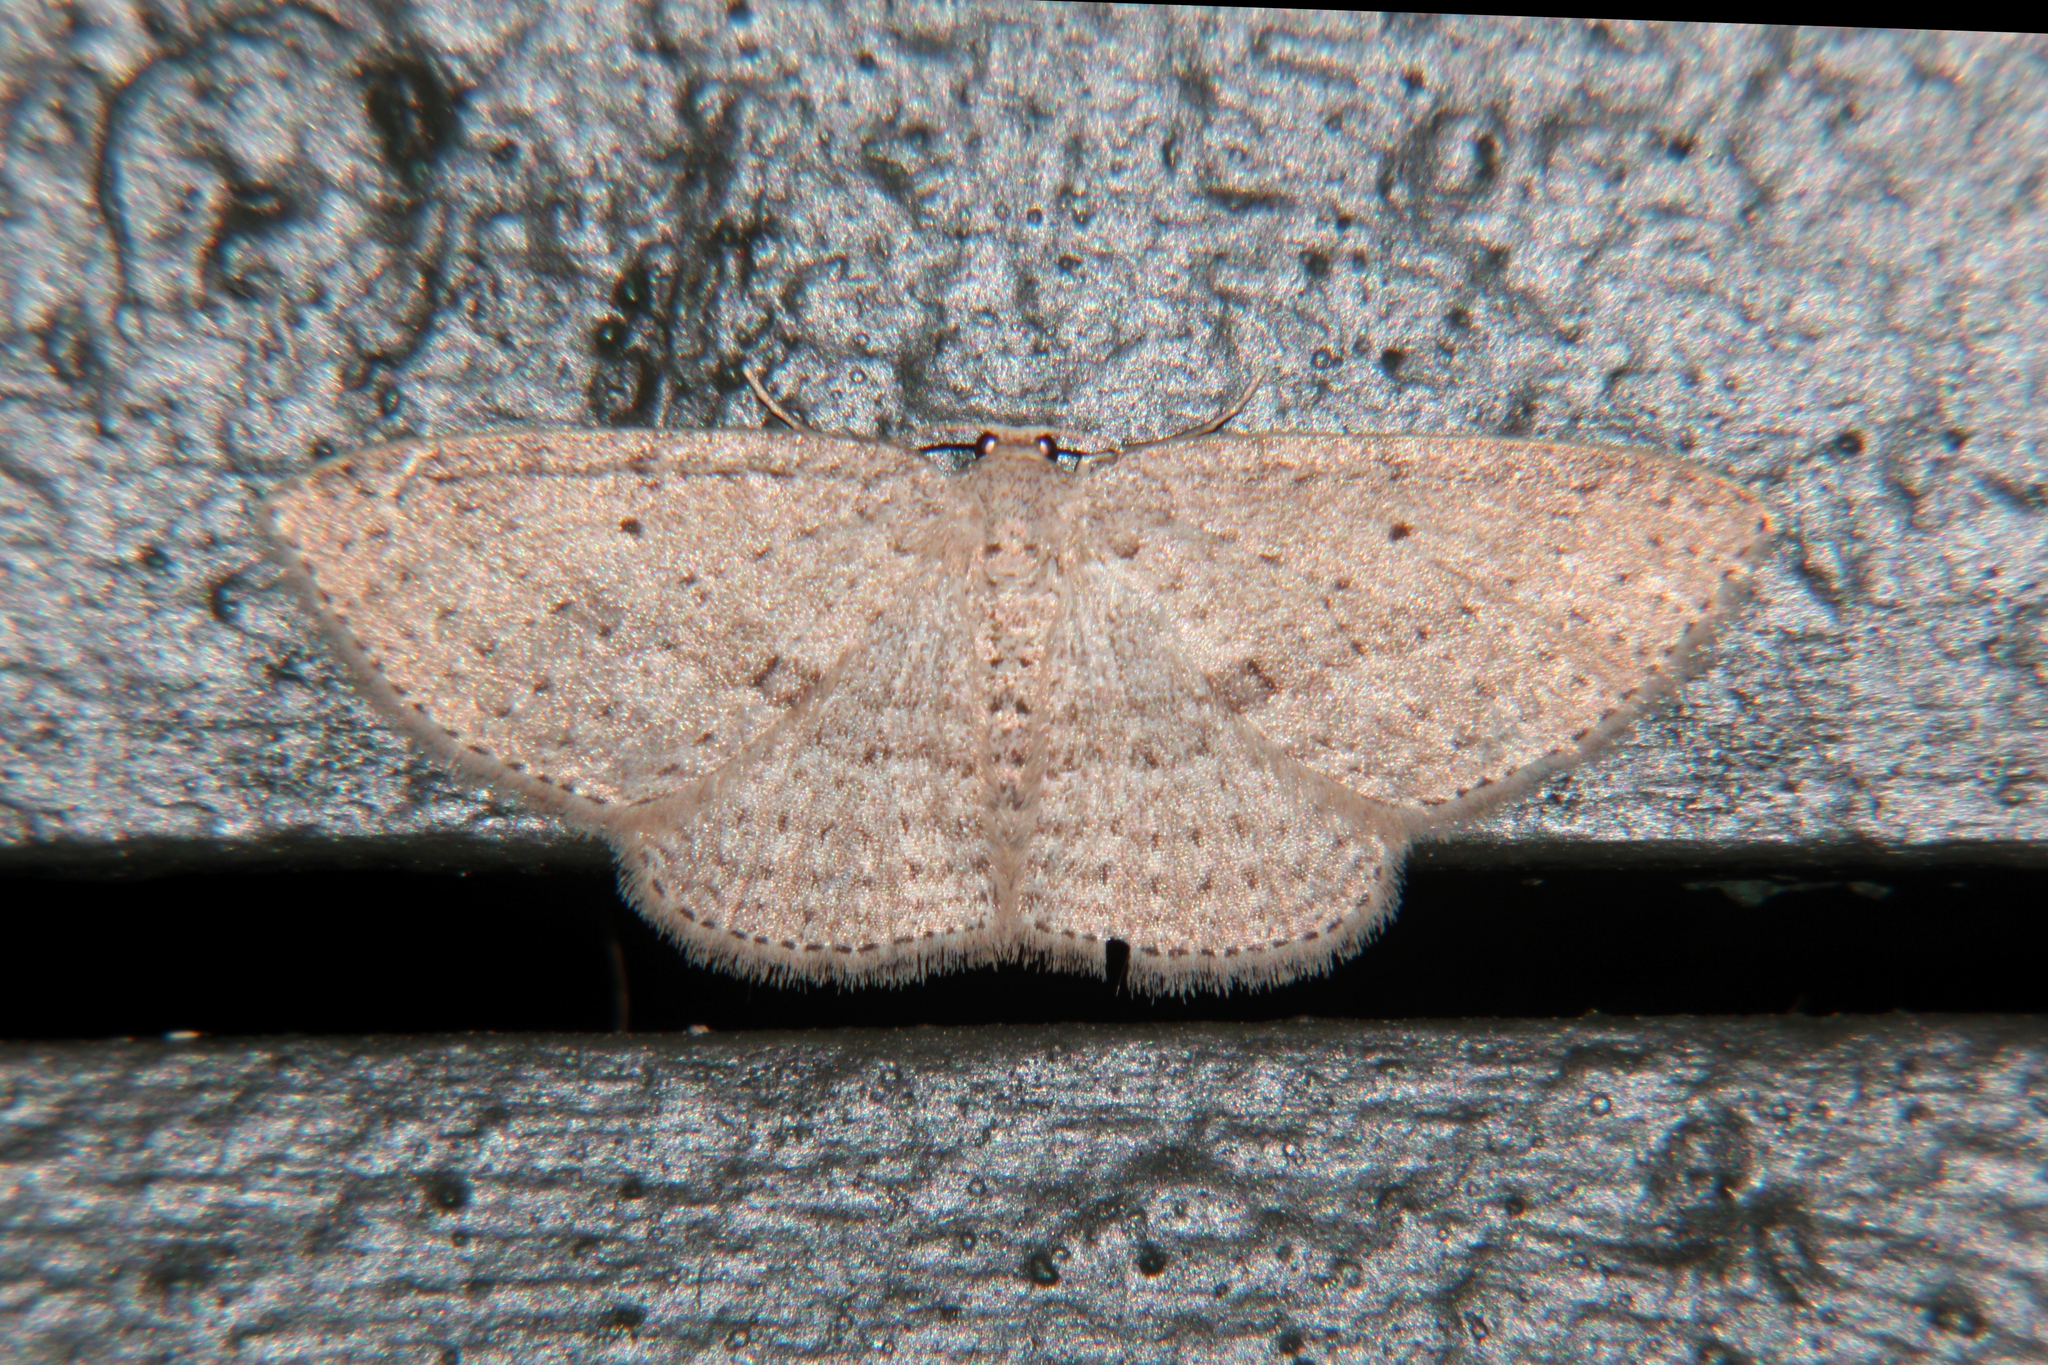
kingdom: Animalia
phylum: Arthropoda
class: Insecta
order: Lepidoptera
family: Geometridae
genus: Poecilasthena
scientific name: Poecilasthena schistaria
